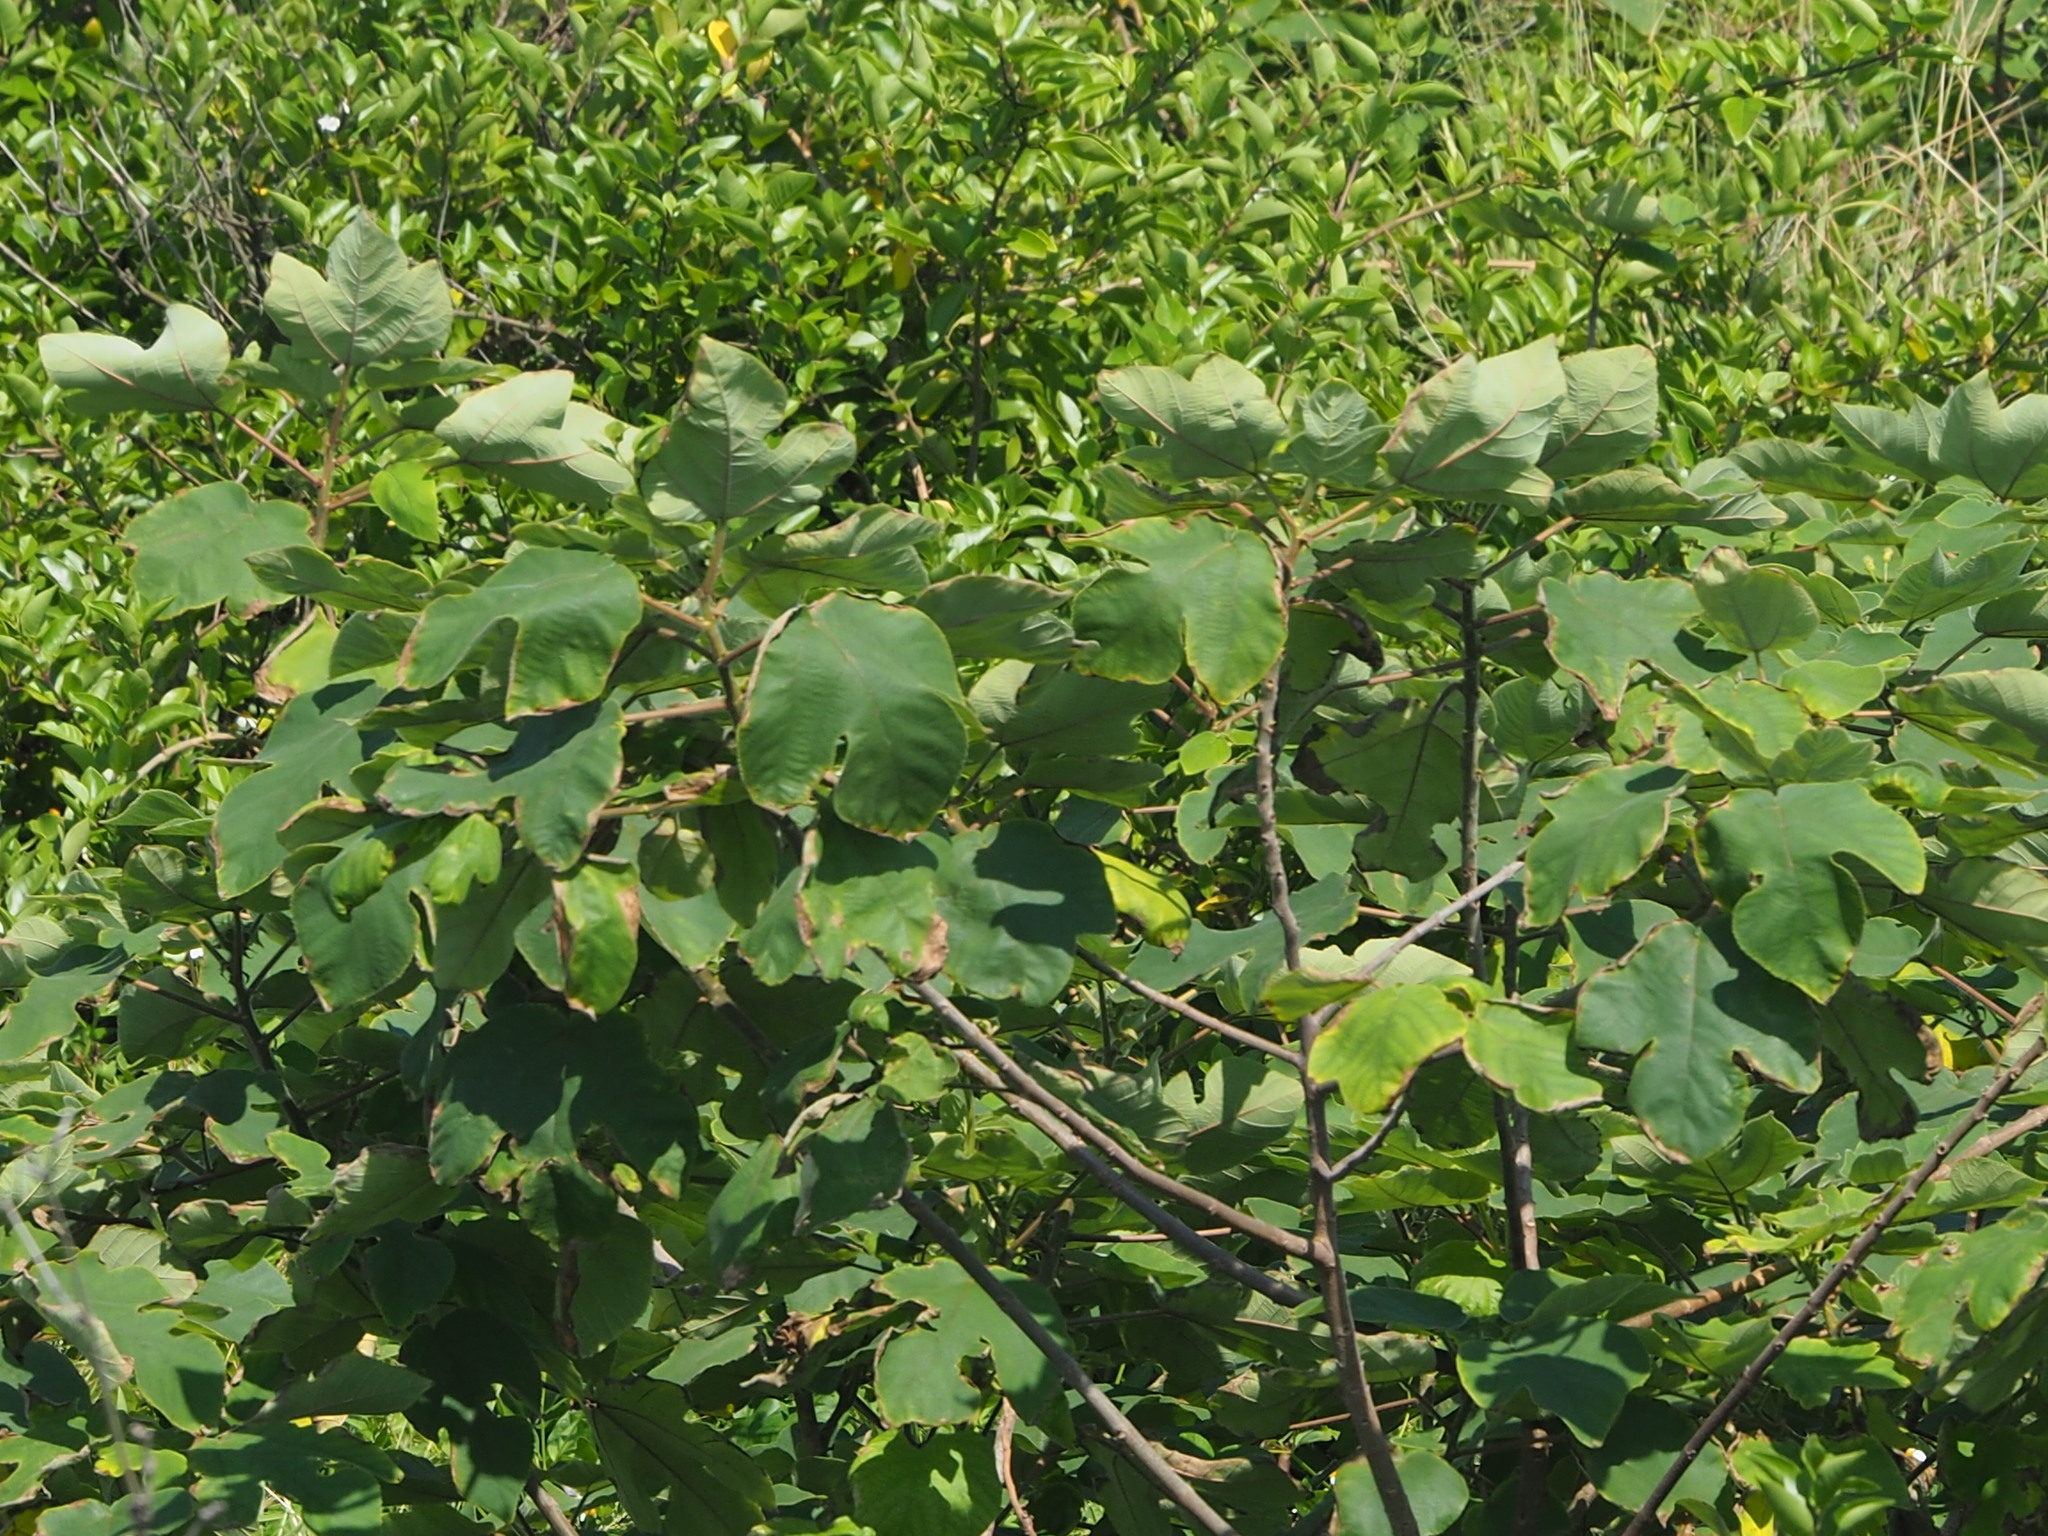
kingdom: Plantae
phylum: Tracheophyta
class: Magnoliopsida
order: Rosales
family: Moraceae
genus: Broussonetia
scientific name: Broussonetia papyrifera
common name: Paper mulberry
